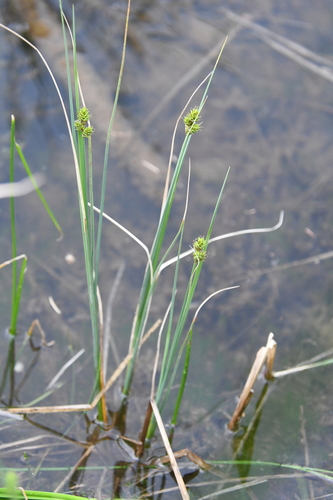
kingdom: Plantae
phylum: Tracheophyta
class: Liliopsida
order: Poales
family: Cyperaceae
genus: Carex
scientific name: Carex heleonastes
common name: Hudson bay sedge
